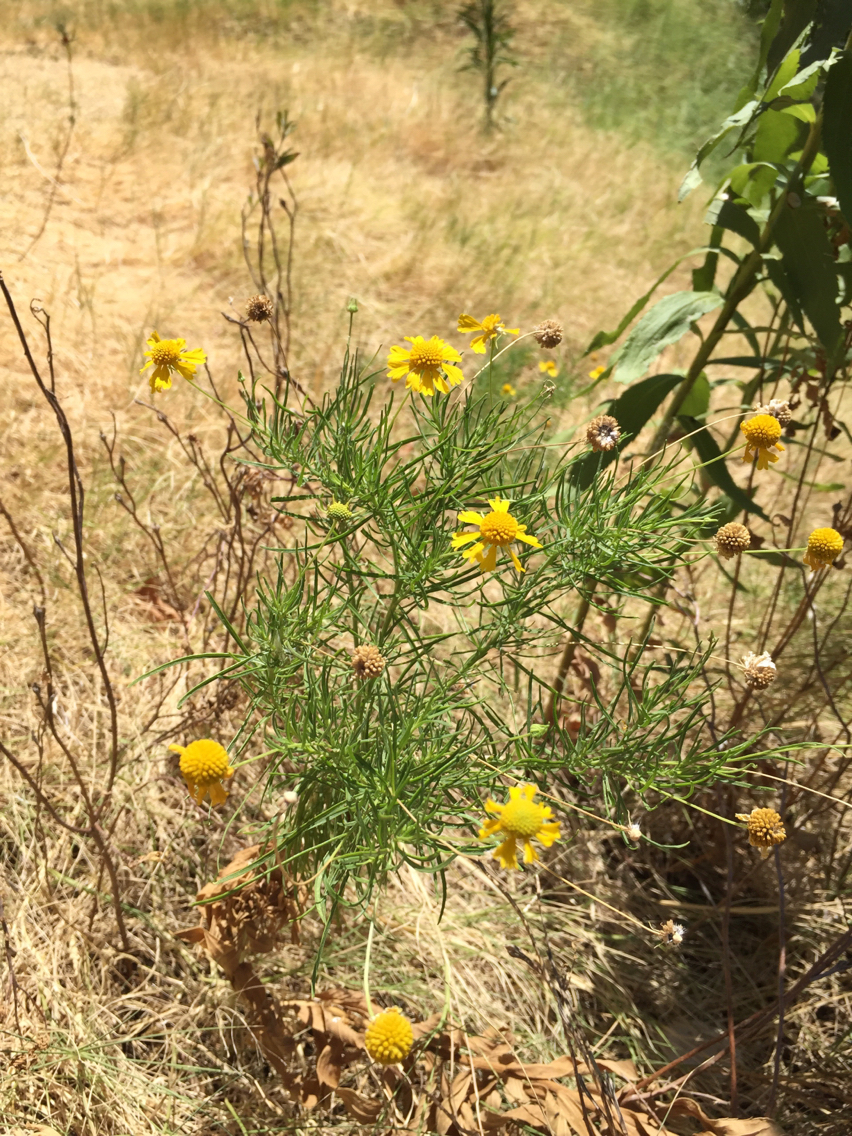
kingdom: Plantae
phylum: Tracheophyta
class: Magnoliopsida
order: Asterales
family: Asteraceae
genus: Helenium
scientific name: Helenium amarum
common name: Bitter sneezeweed
